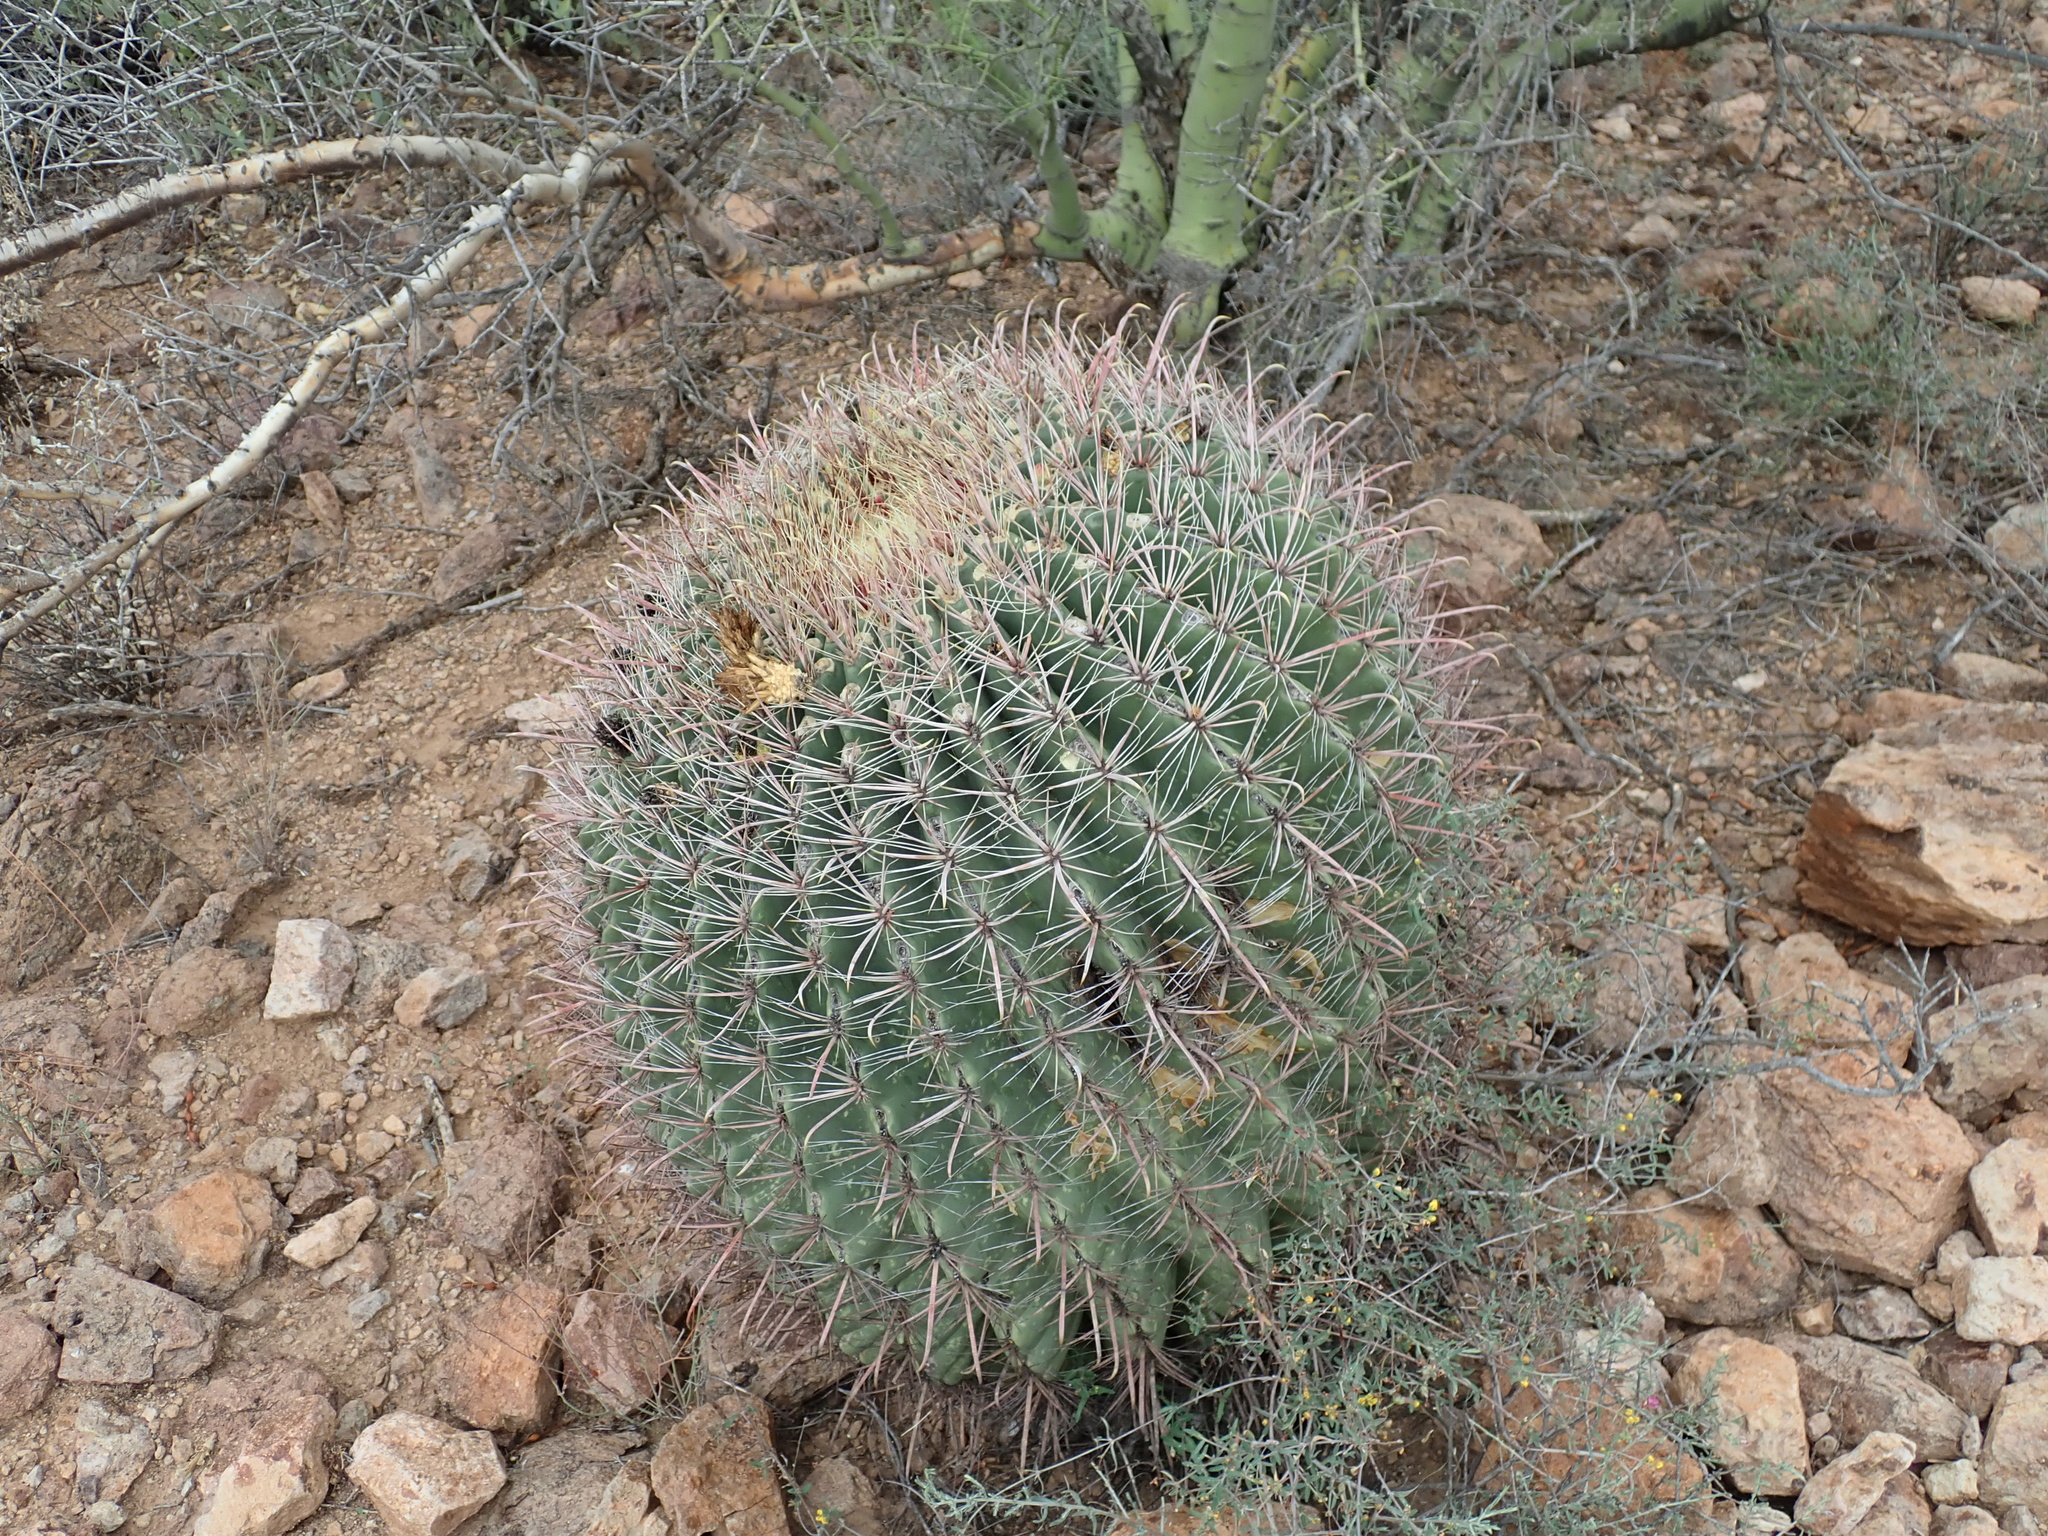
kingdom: Plantae
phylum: Tracheophyta
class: Magnoliopsida
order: Caryophyllales
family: Cactaceae
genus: Ferocactus
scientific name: Ferocactus wislizeni
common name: Candy barrel cactus
